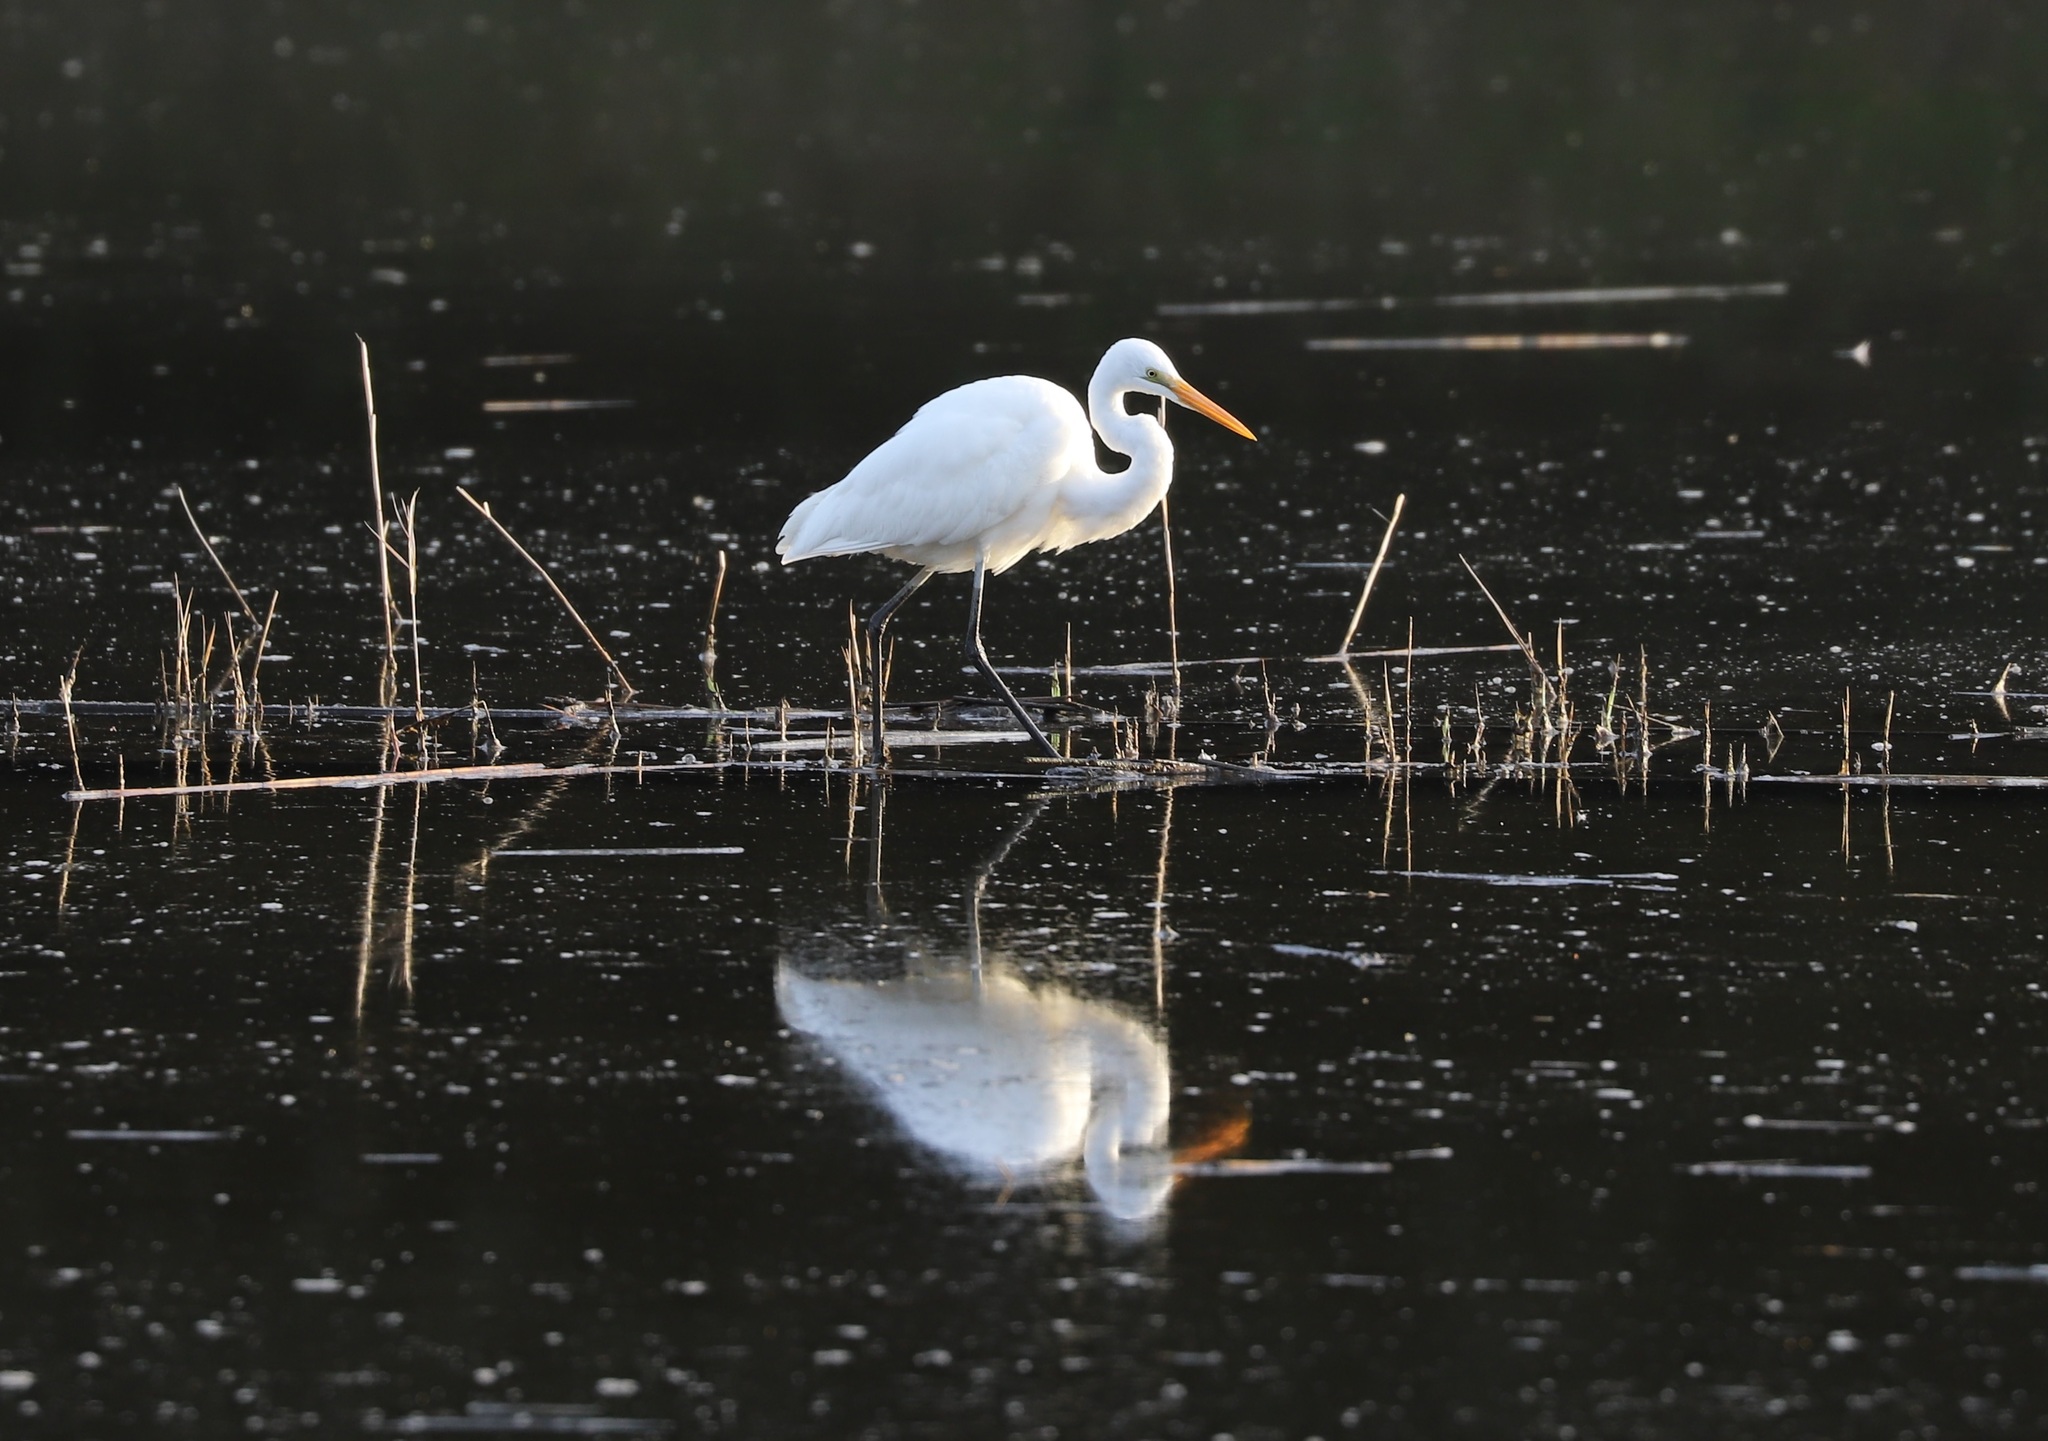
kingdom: Animalia
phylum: Chordata
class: Aves
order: Pelecaniformes
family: Ardeidae
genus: Ardea
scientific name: Ardea alba
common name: Great egret
